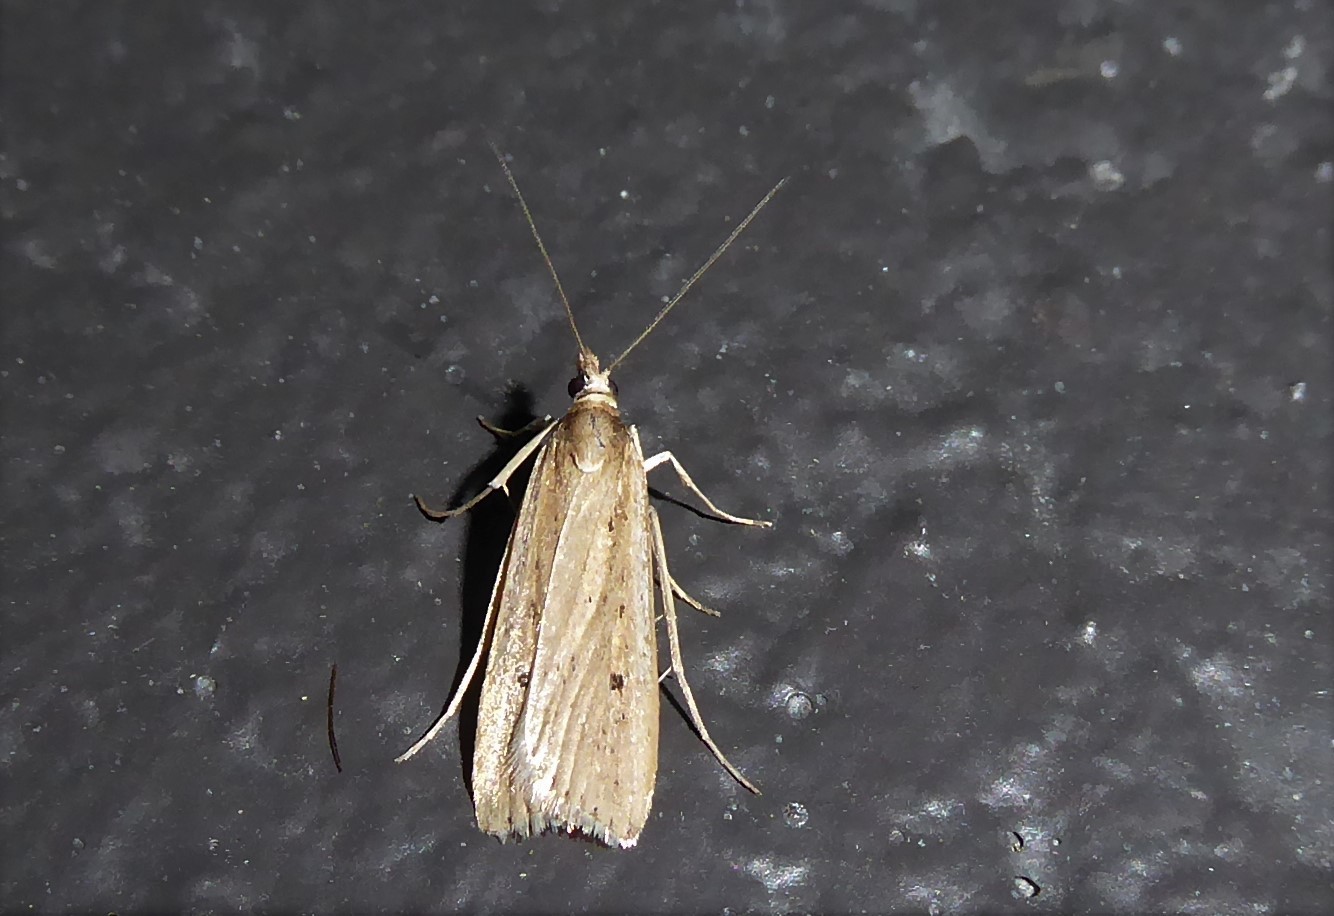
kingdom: Animalia
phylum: Arthropoda
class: Insecta
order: Lepidoptera
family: Crambidae
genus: Eudonia
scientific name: Eudonia sabulosella
